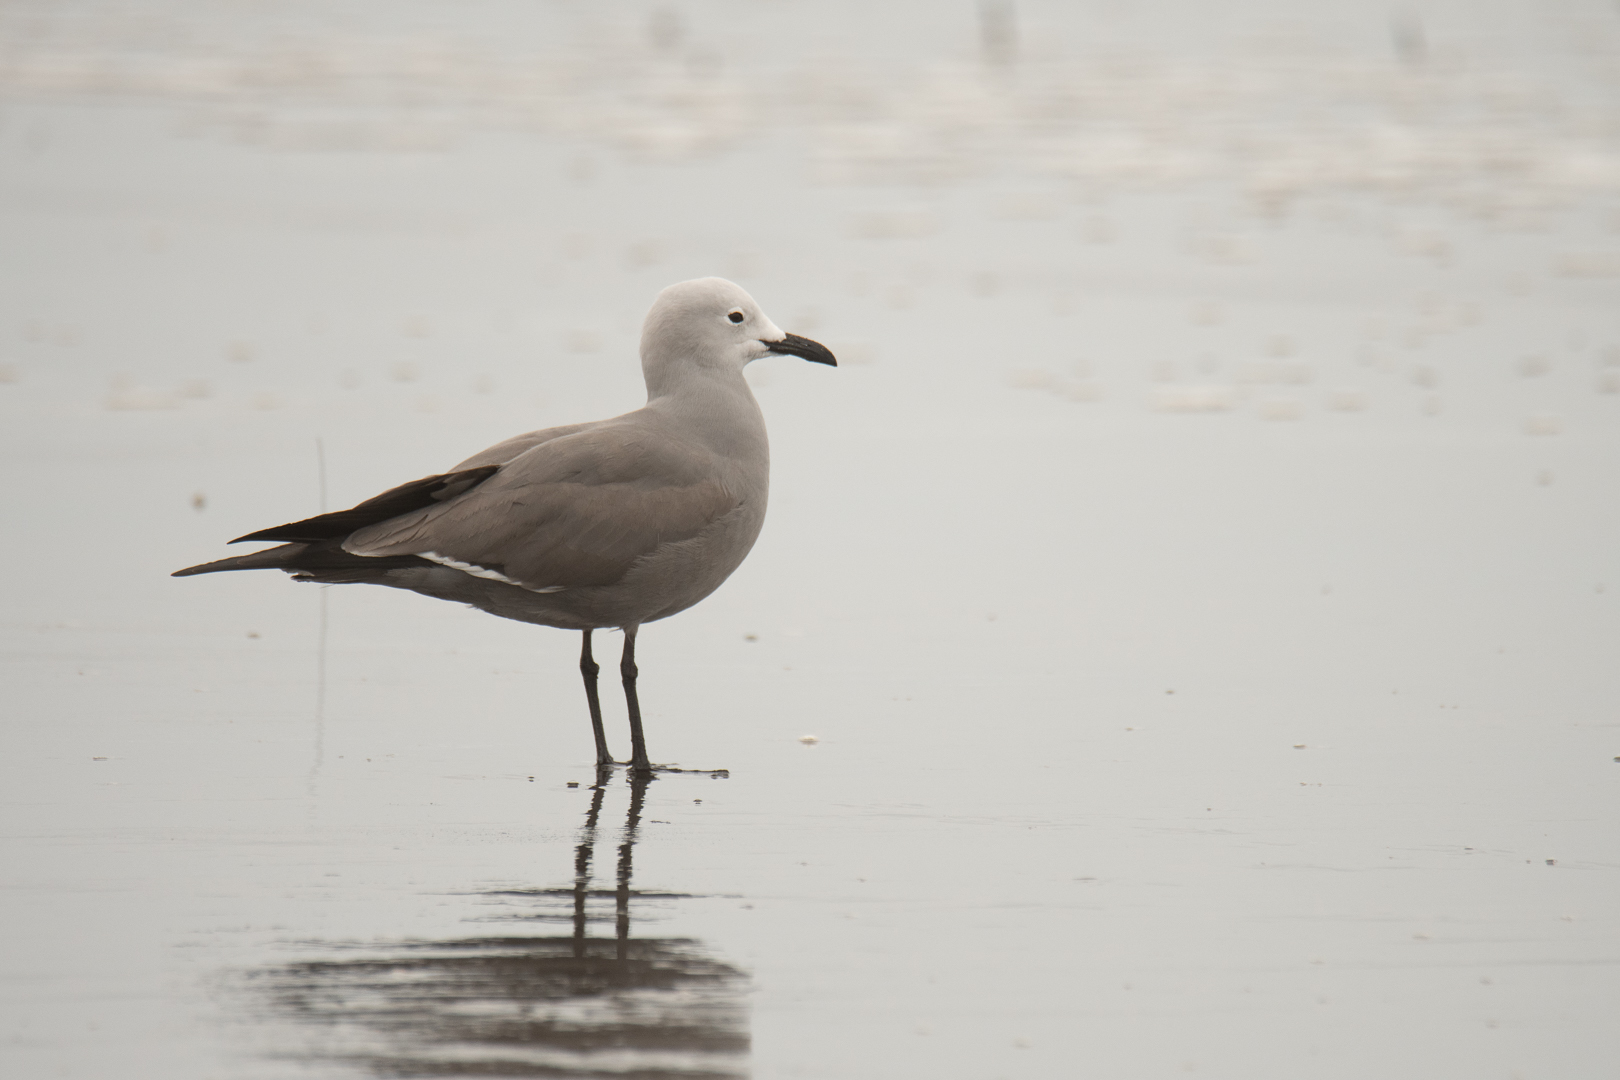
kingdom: Animalia
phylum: Chordata
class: Aves
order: Charadriiformes
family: Laridae
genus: Leucophaeus
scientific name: Leucophaeus modestus
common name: Gray gull
